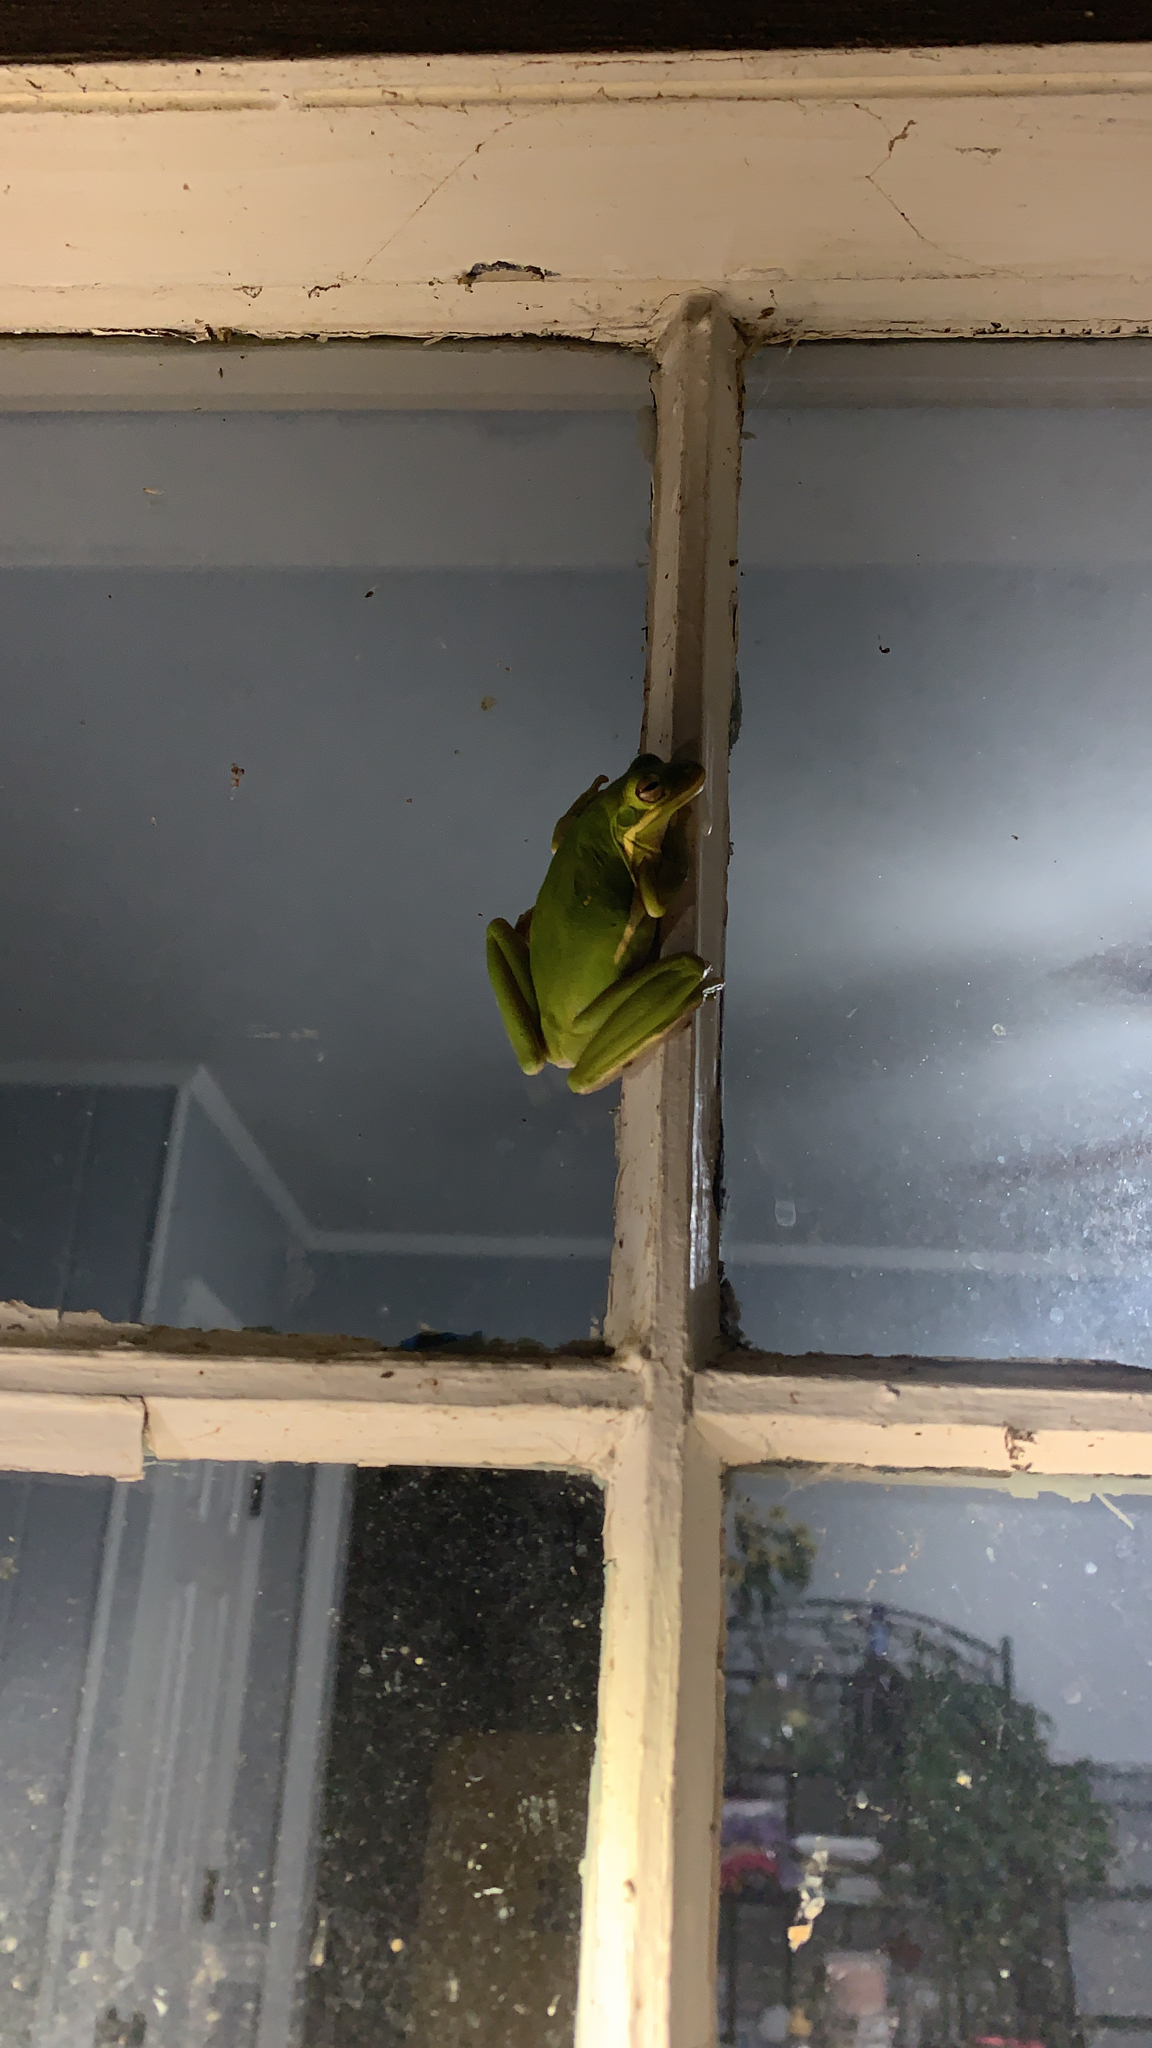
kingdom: Animalia
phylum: Chordata
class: Amphibia
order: Anura
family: Hylidae
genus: Dryophytes
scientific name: Dryophytes cinereus
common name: Green treefrog
